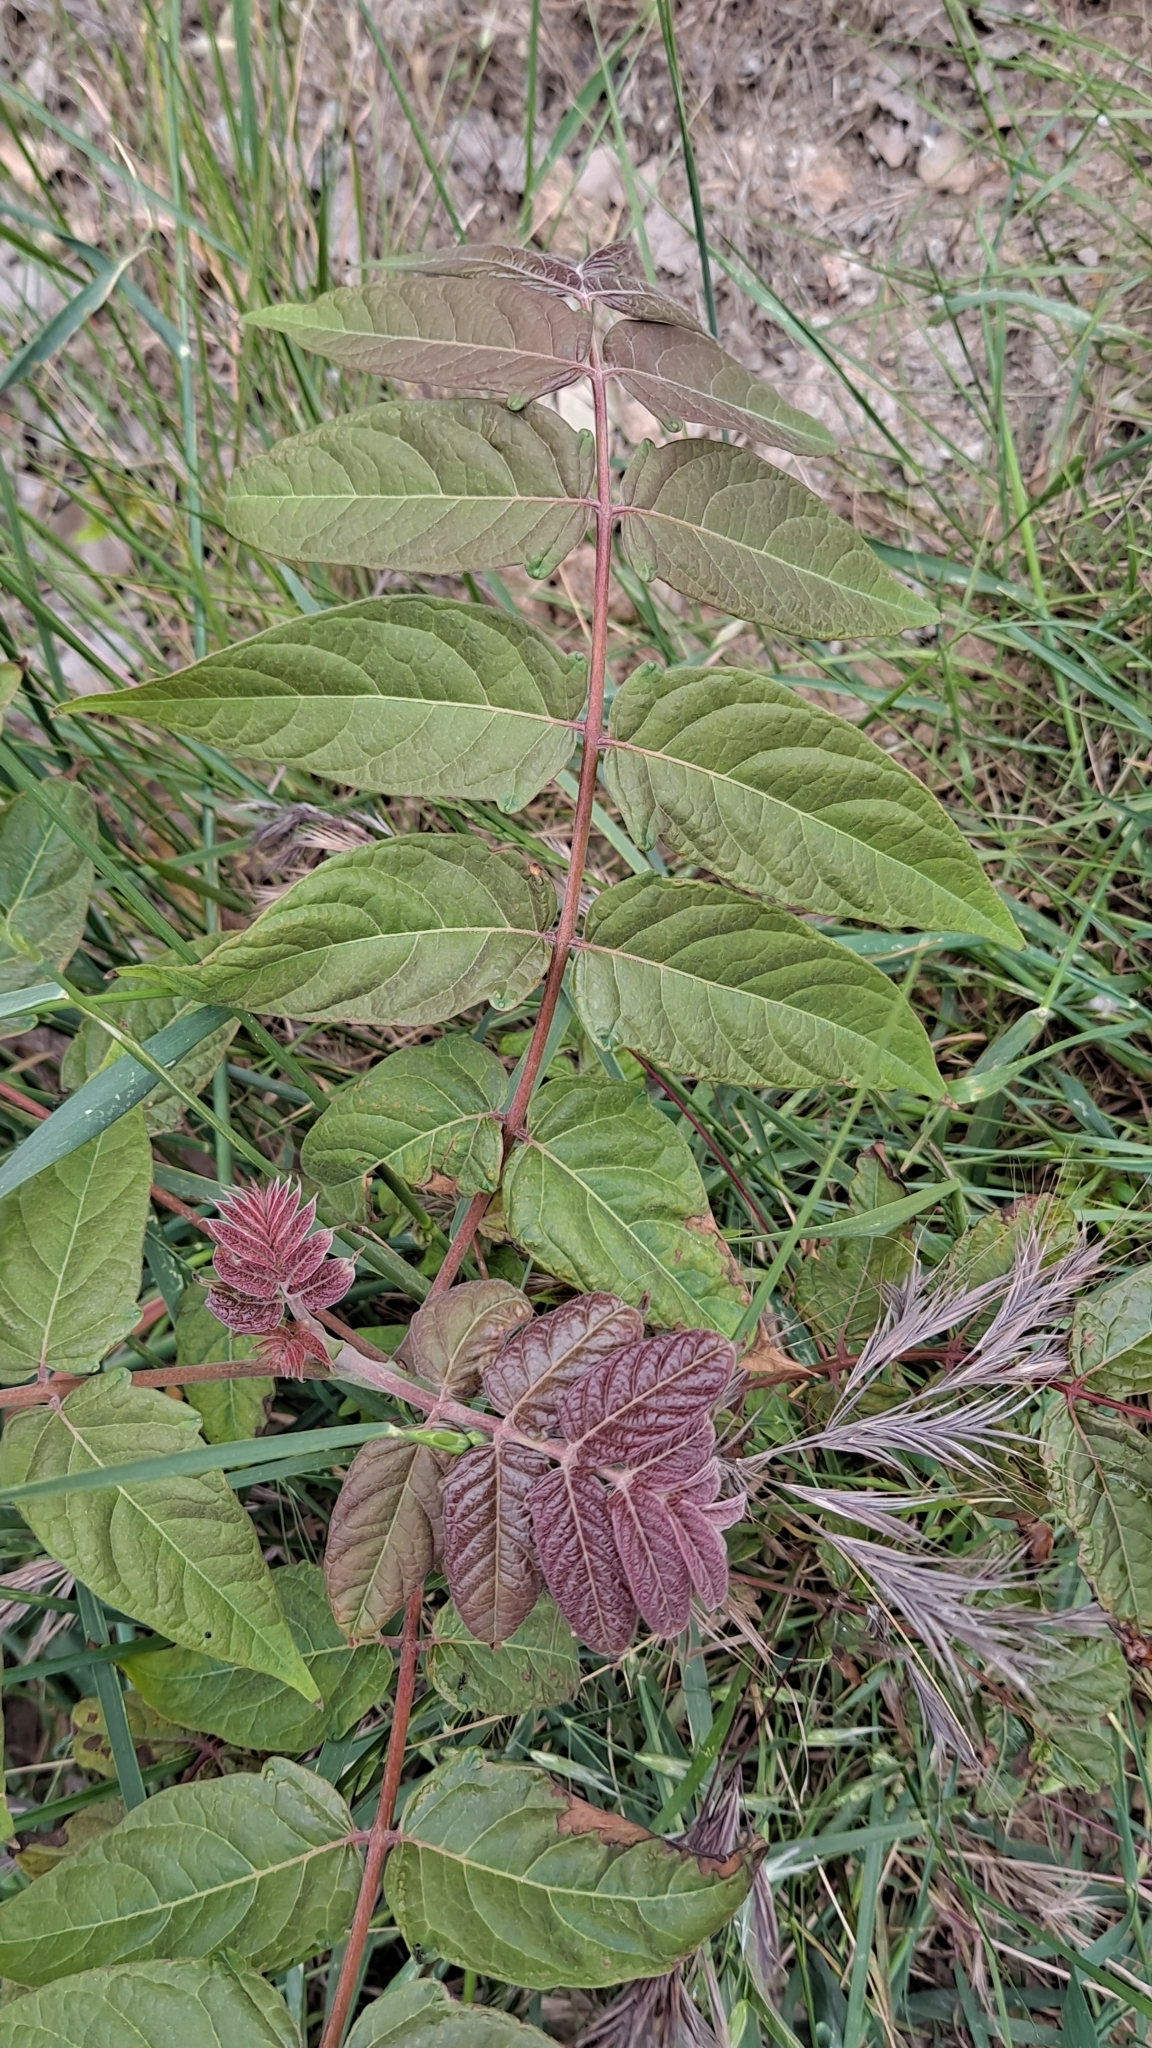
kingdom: Plantae
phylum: Tracheophyta
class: Magnoliopsida
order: Sapindales
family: Simaroubaceae
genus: Ailanthus
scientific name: Ailanthus altissima
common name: Tree-of-heaven
